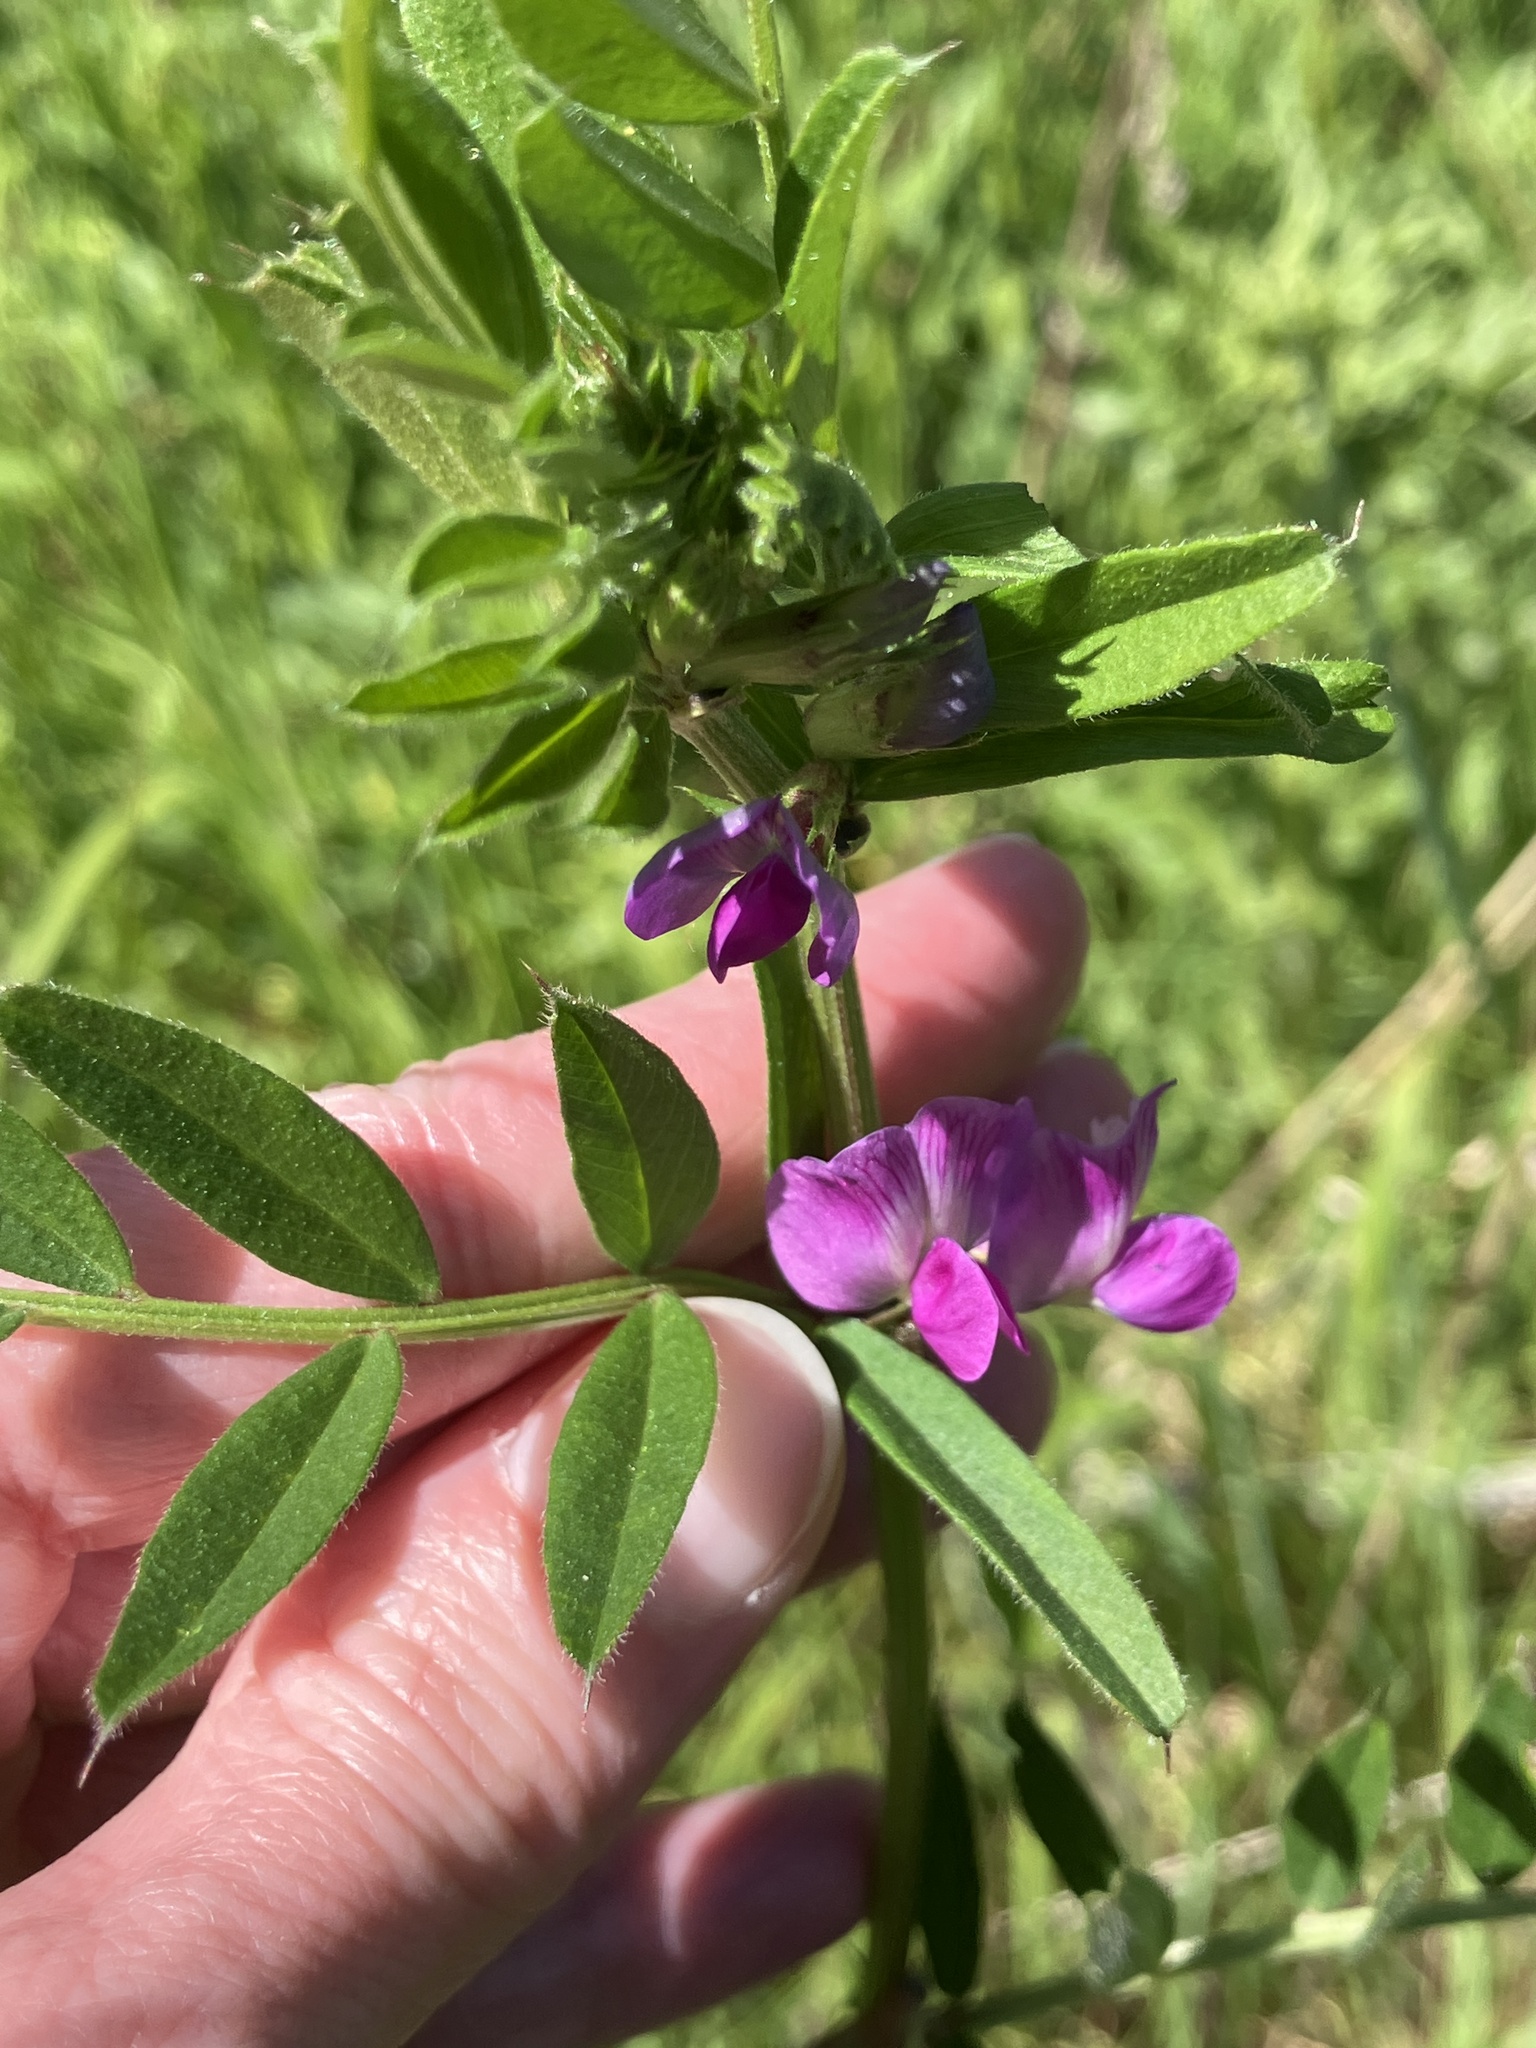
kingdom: Plantae
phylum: Tracheophyta
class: Magnoliopsida
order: Fabales
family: Fabaceae
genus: Vicia
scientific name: Vicia sativa
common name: Garden vetch
